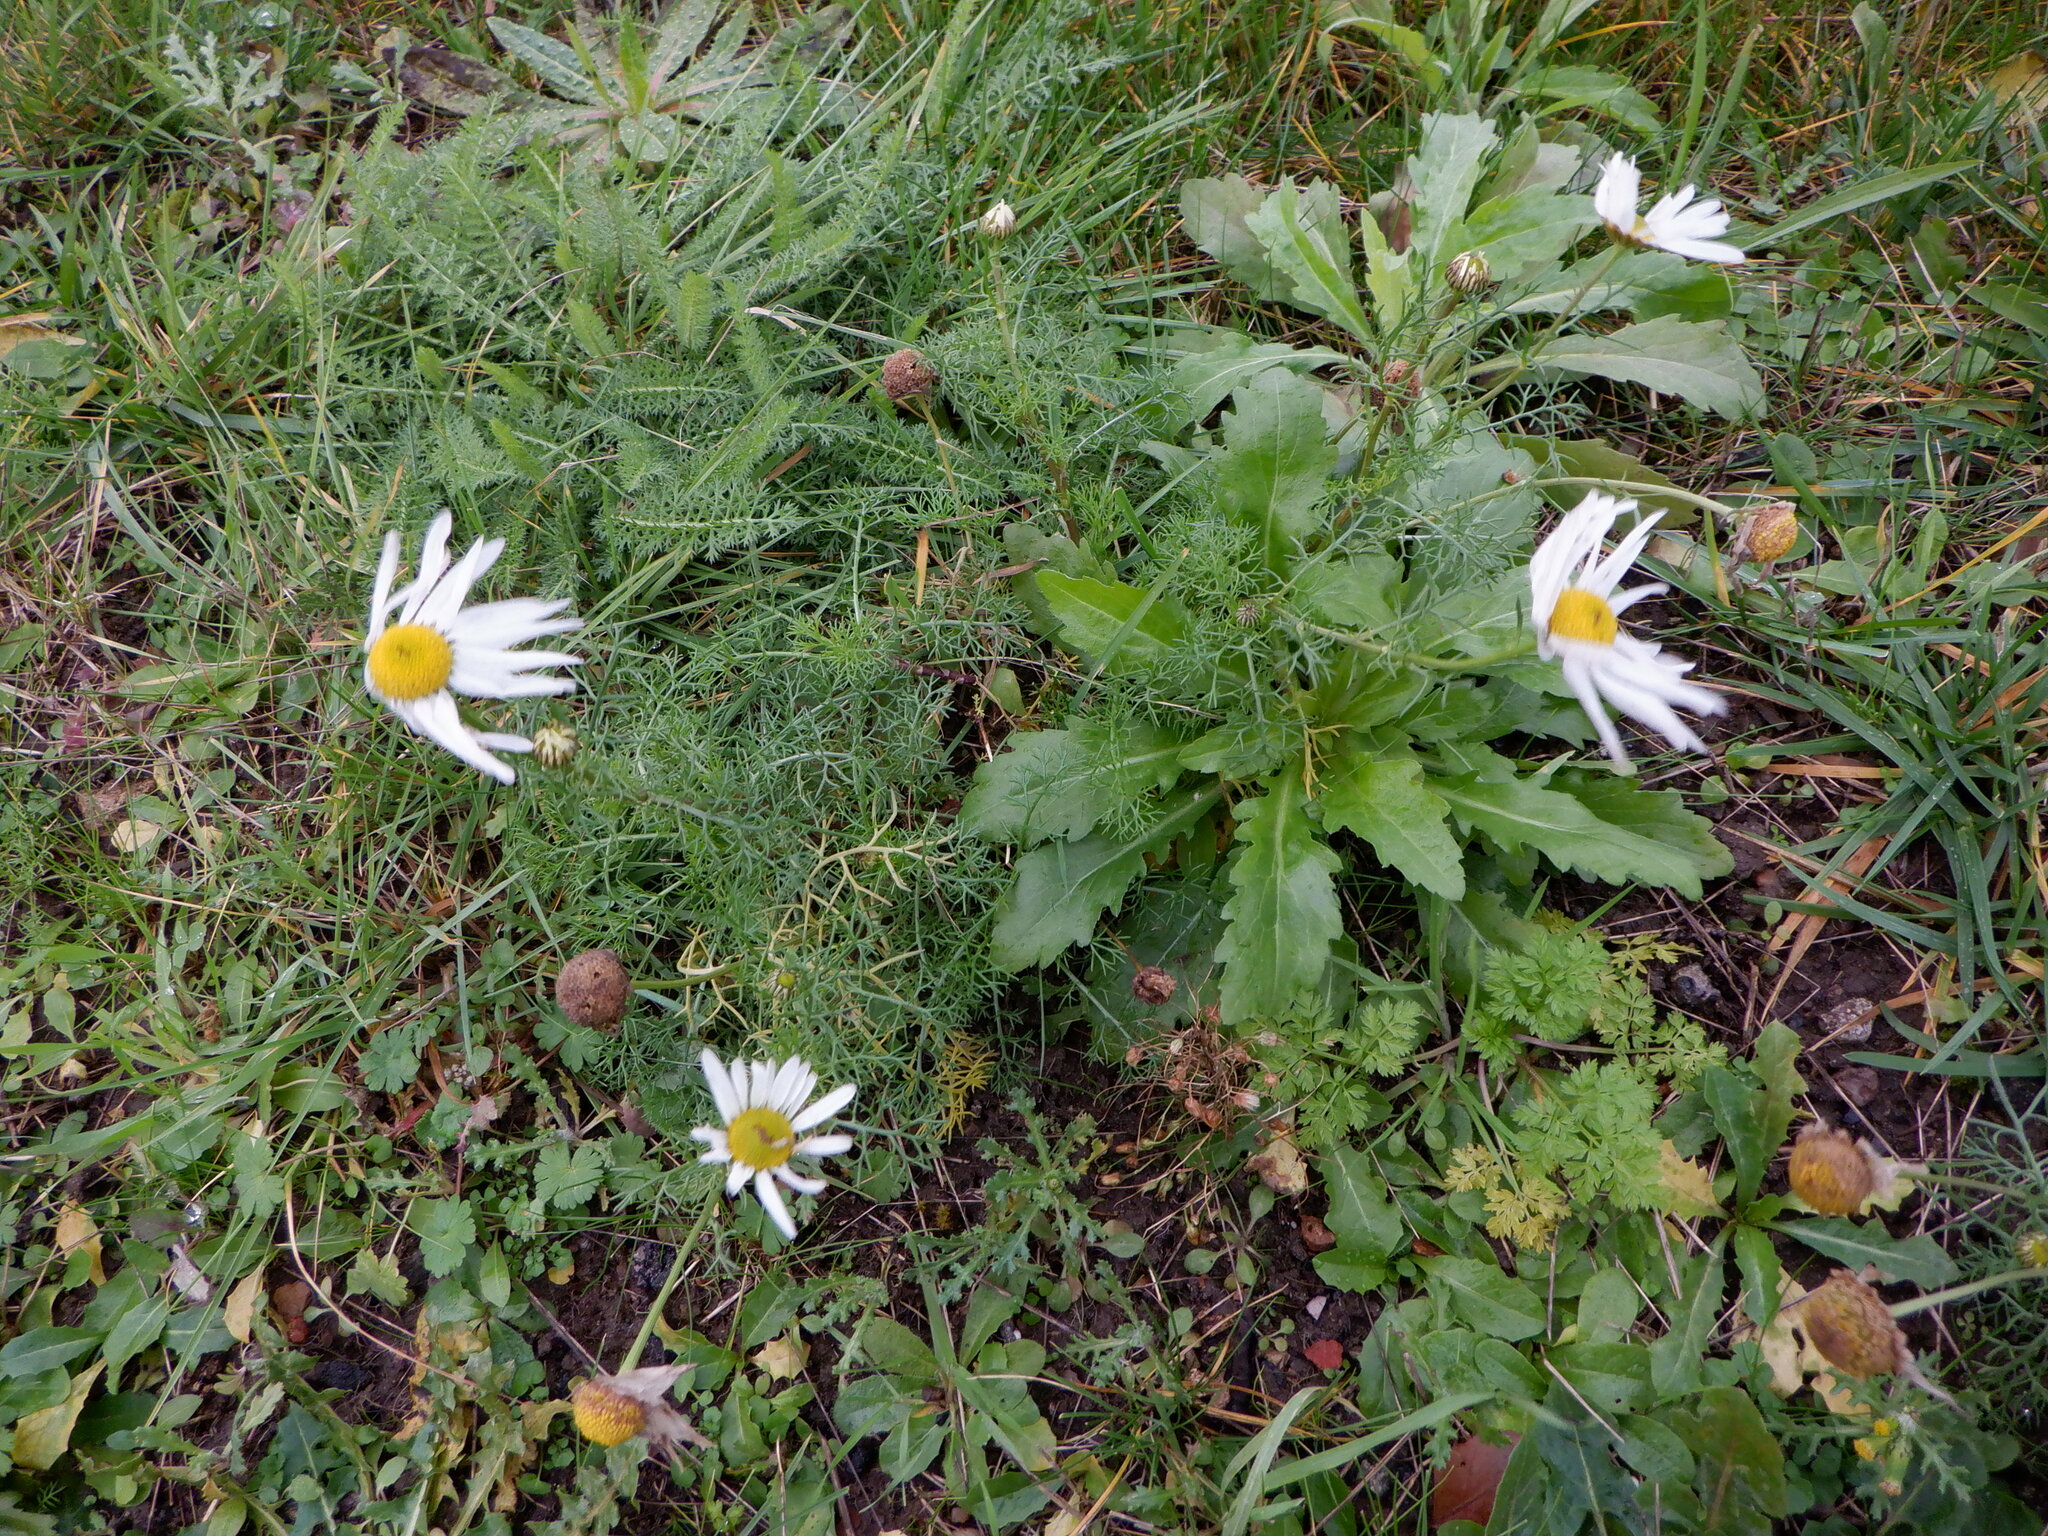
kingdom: Plantae
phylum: Tracheophyta
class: Magnoliopsida
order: Asterales
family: Asteraceae
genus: Leucanthemum
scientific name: Leucanthemum vulgare
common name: Oxeye daisy
